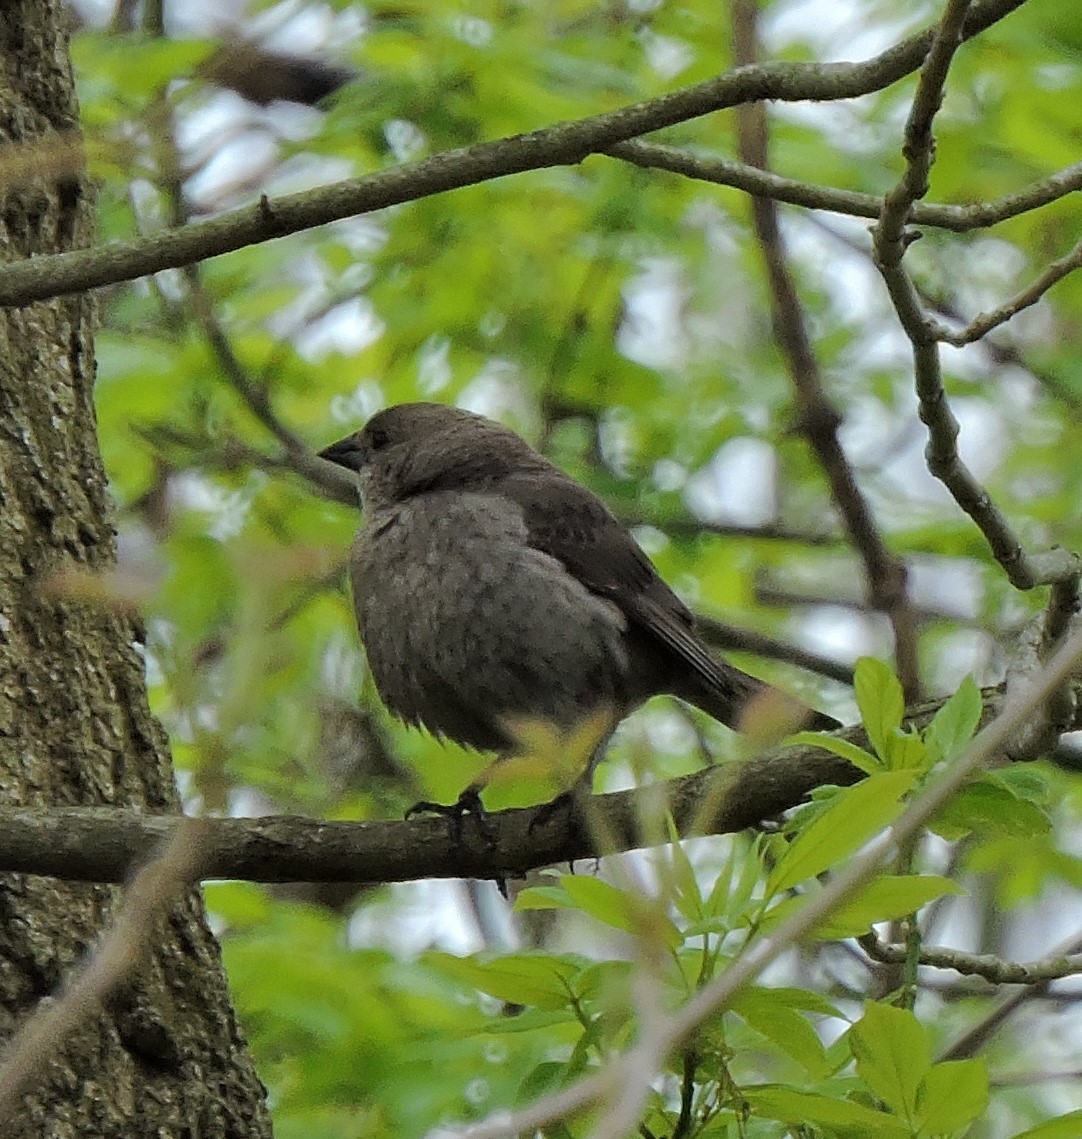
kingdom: Animalia
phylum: Chordata
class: Aves
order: Passeriformes
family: Icteridae
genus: Molothrus
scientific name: Molothrus ater
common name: Brown-headed cowbird
